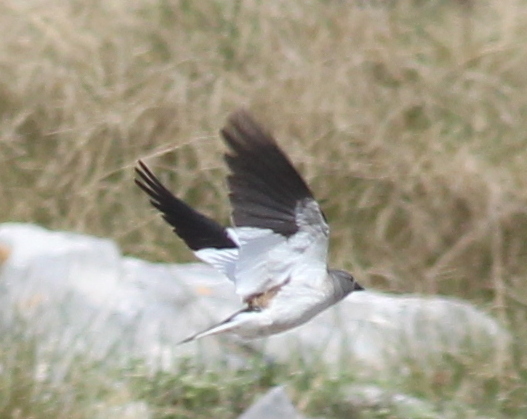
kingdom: Animalia
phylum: Chordata
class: Aves
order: Passeriformes
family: Passeridae
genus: Montifringilla
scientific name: Montifringilla nivalis
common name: White-winged snowfinch
